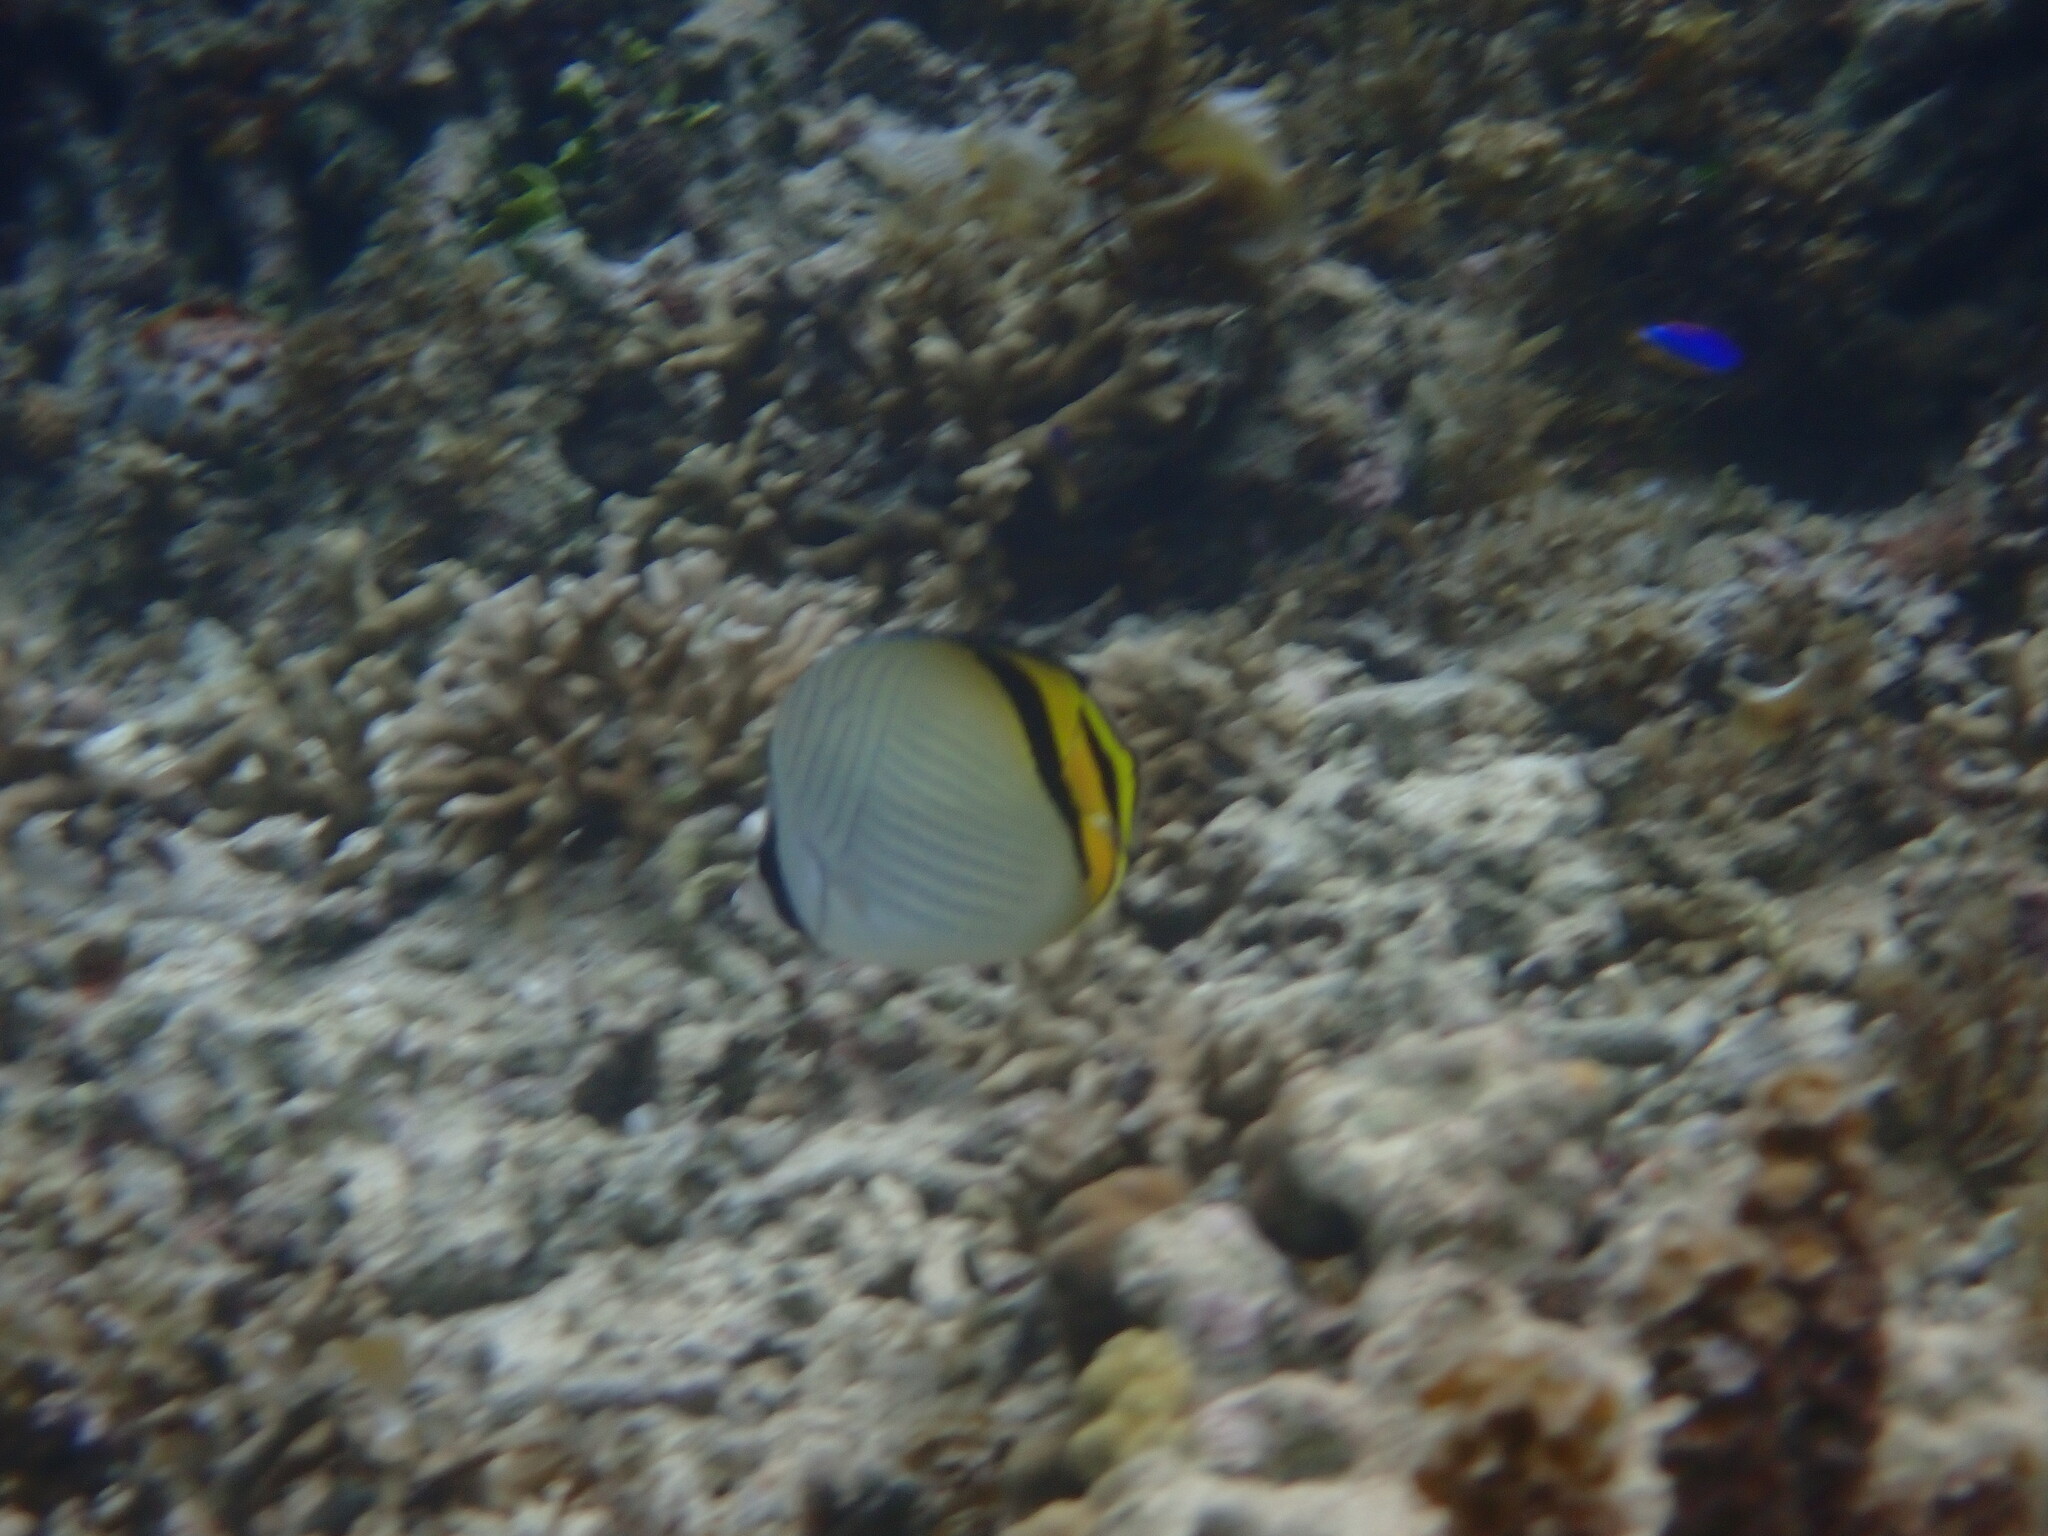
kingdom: Animalia
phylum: Chordata
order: Perciformes
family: Chaetodontidae
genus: Chaetodon
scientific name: Chaetodon vagabundus
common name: Vagabond butterflyfish
